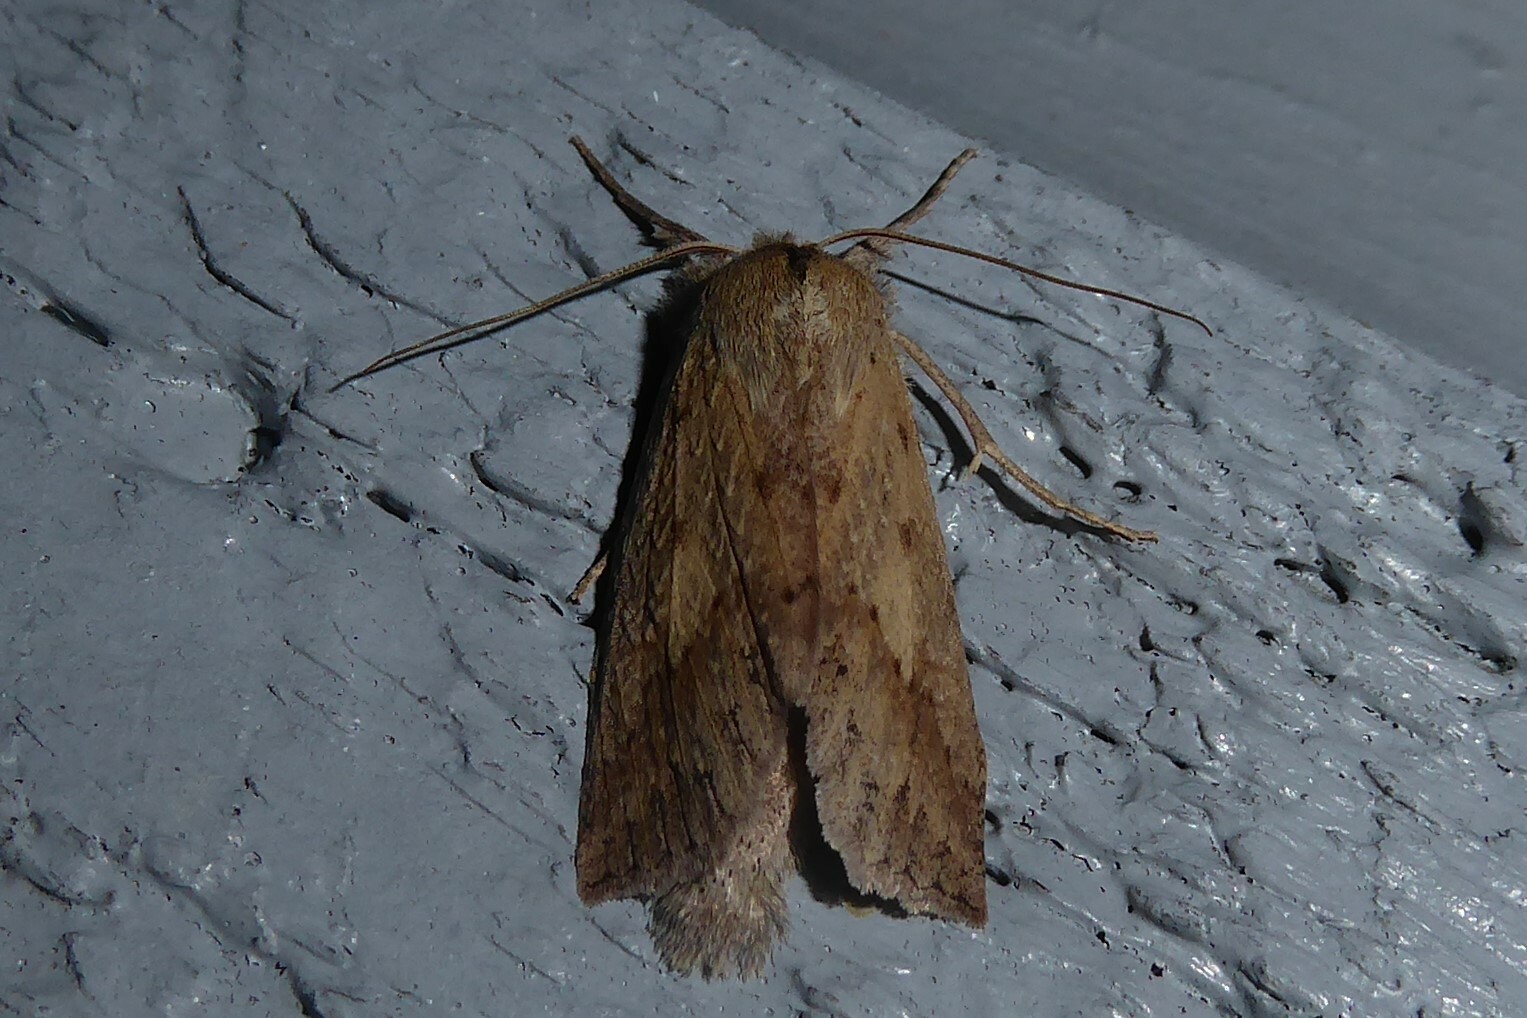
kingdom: Animalia
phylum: Arthropoda
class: Insecta
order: Lepidoptera
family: Geometridae
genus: Declana
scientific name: Declana leptomera
